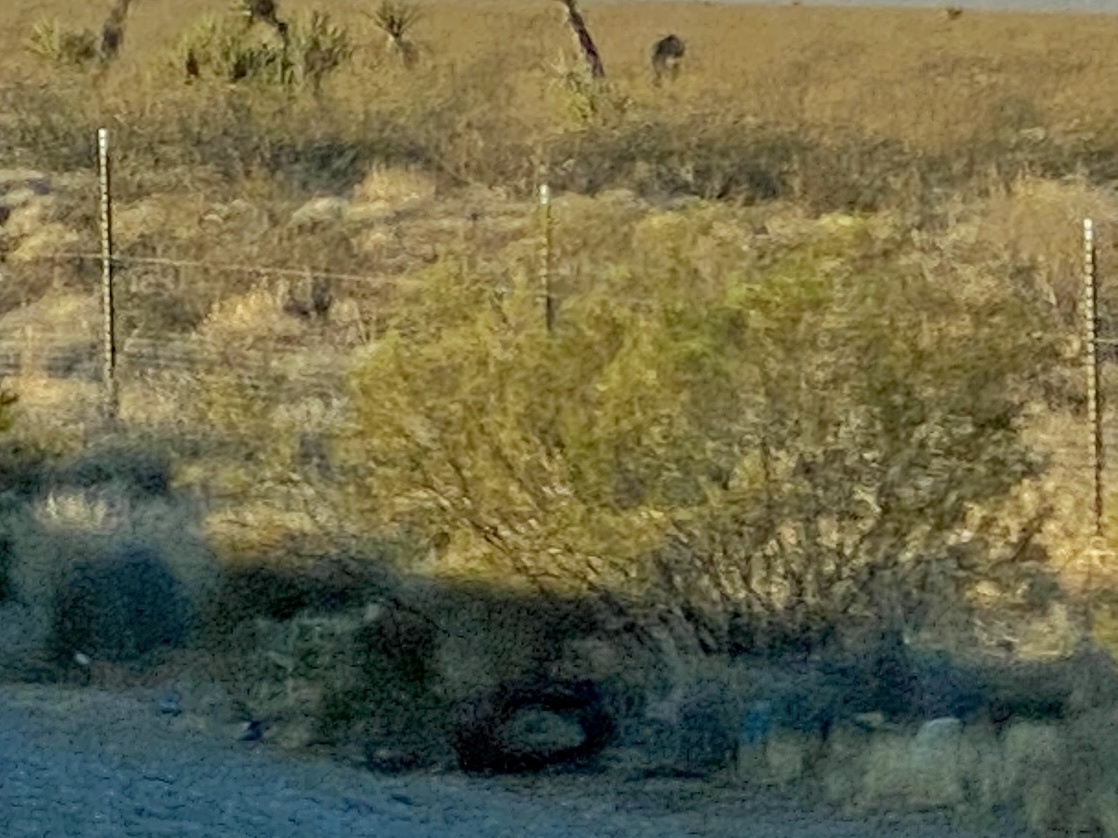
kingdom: Plantae
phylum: Tracheophyta
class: Magnoliopsida
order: Zygophyllales
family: Zygophyllaceae
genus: Larrea
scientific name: Larrea tridentata
